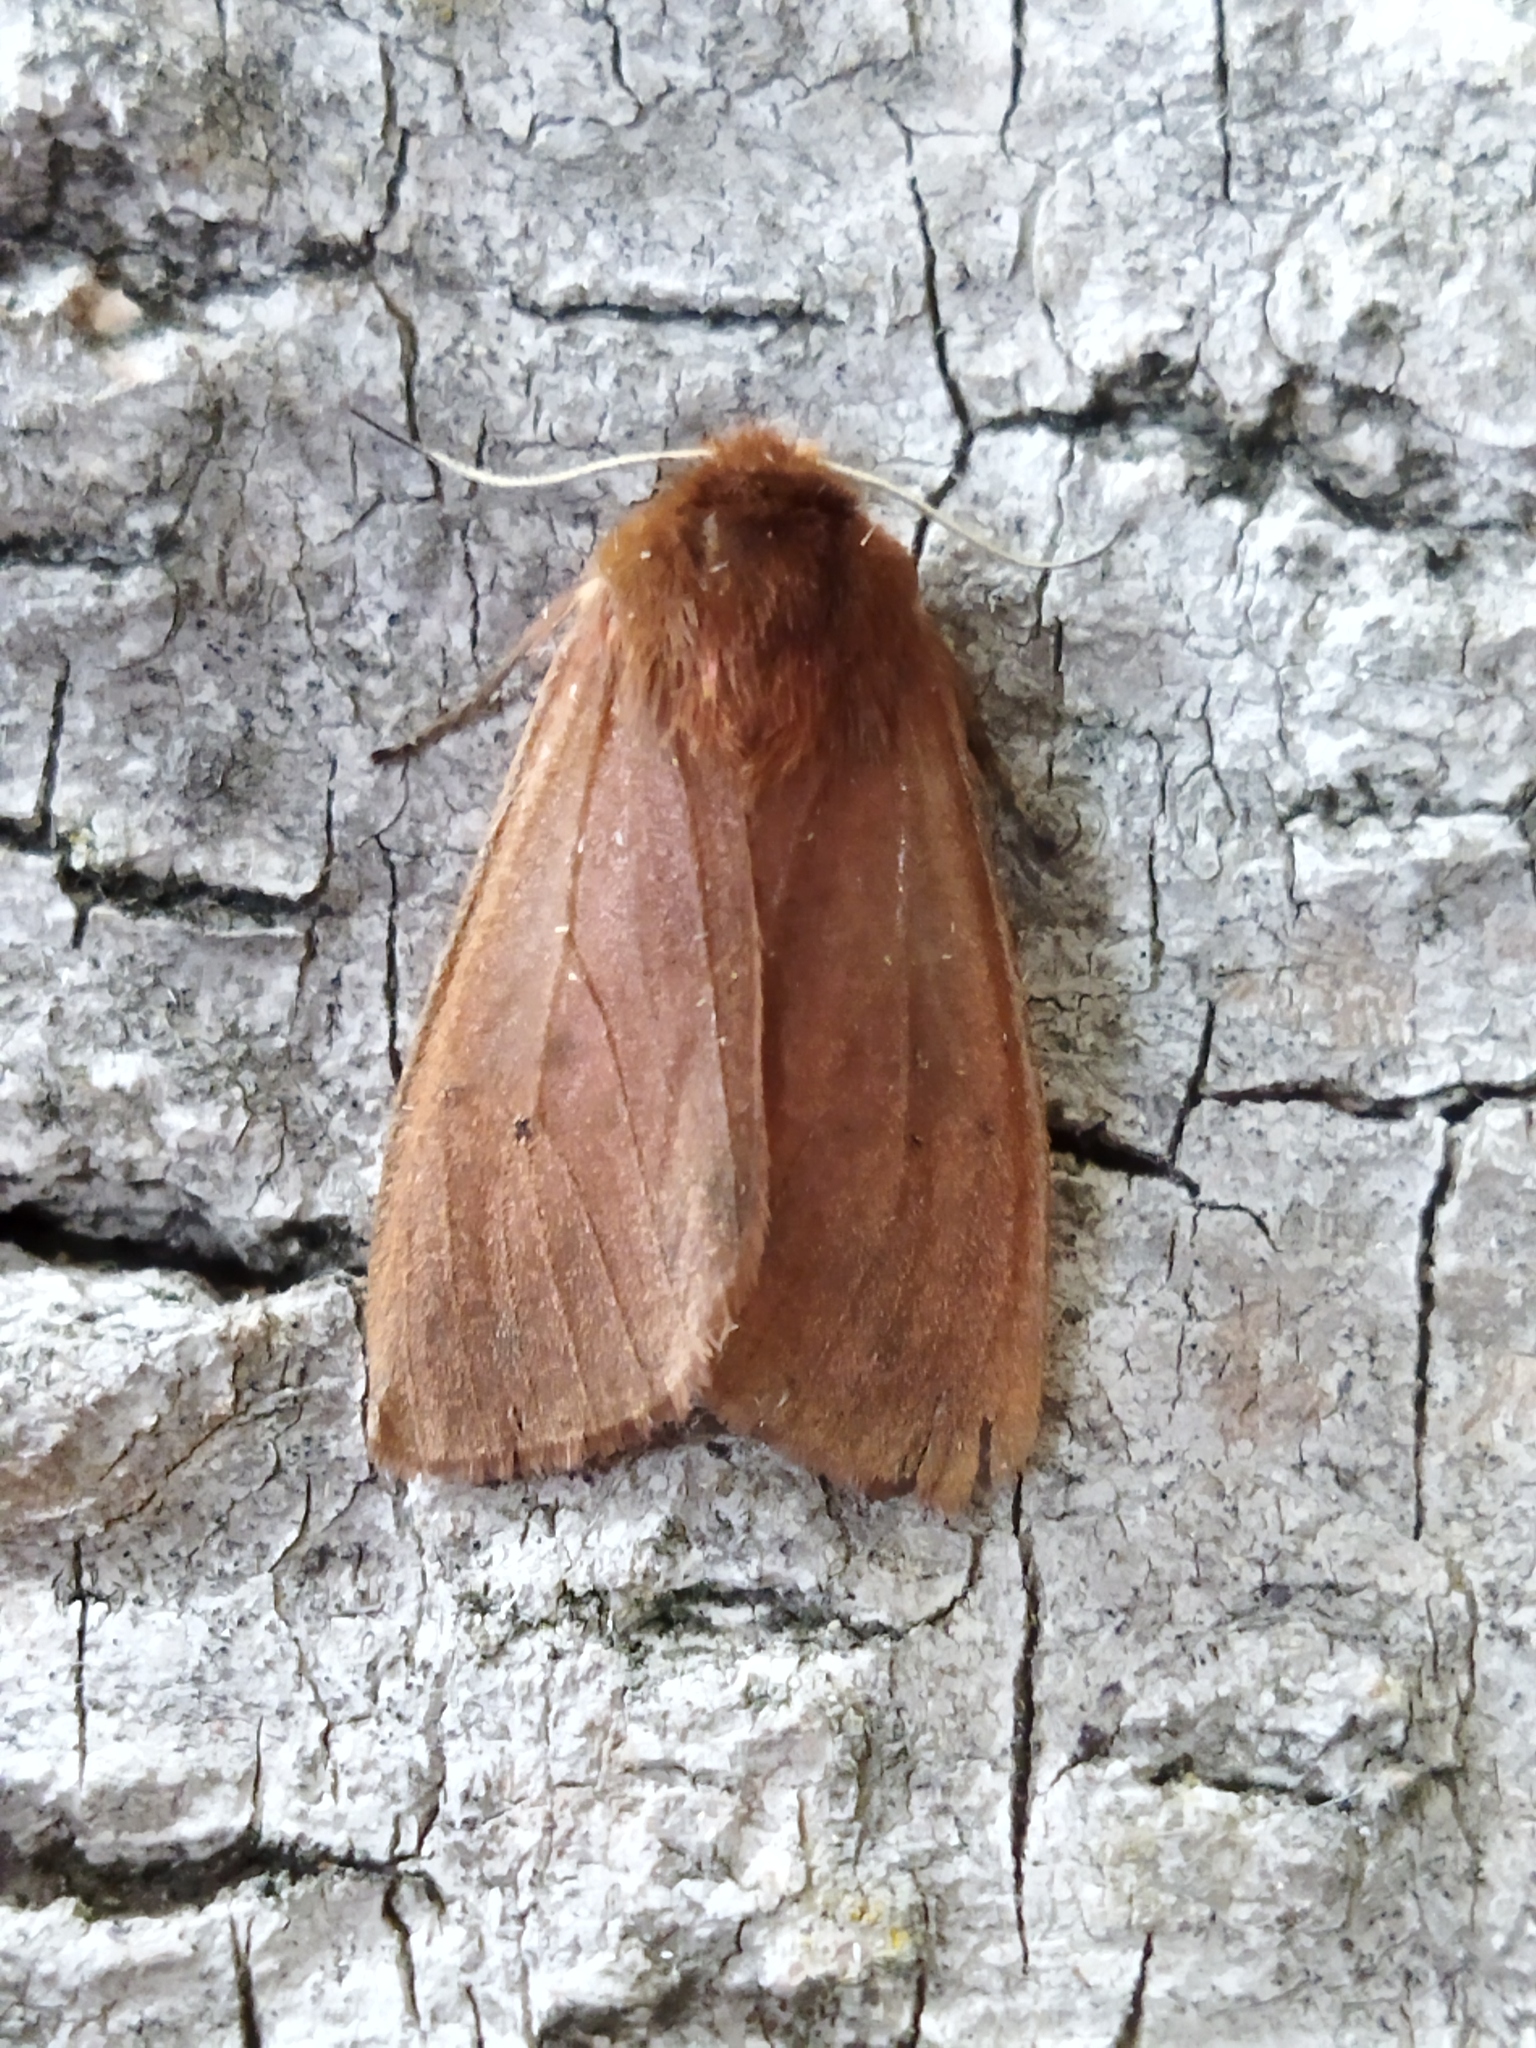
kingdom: Animalia
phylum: Arthropoda
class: Insecta
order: Lepidoptera
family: Erebidae
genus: Phragmatobia
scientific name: Phragmatobia fuliginosa
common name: Ruby tiger
